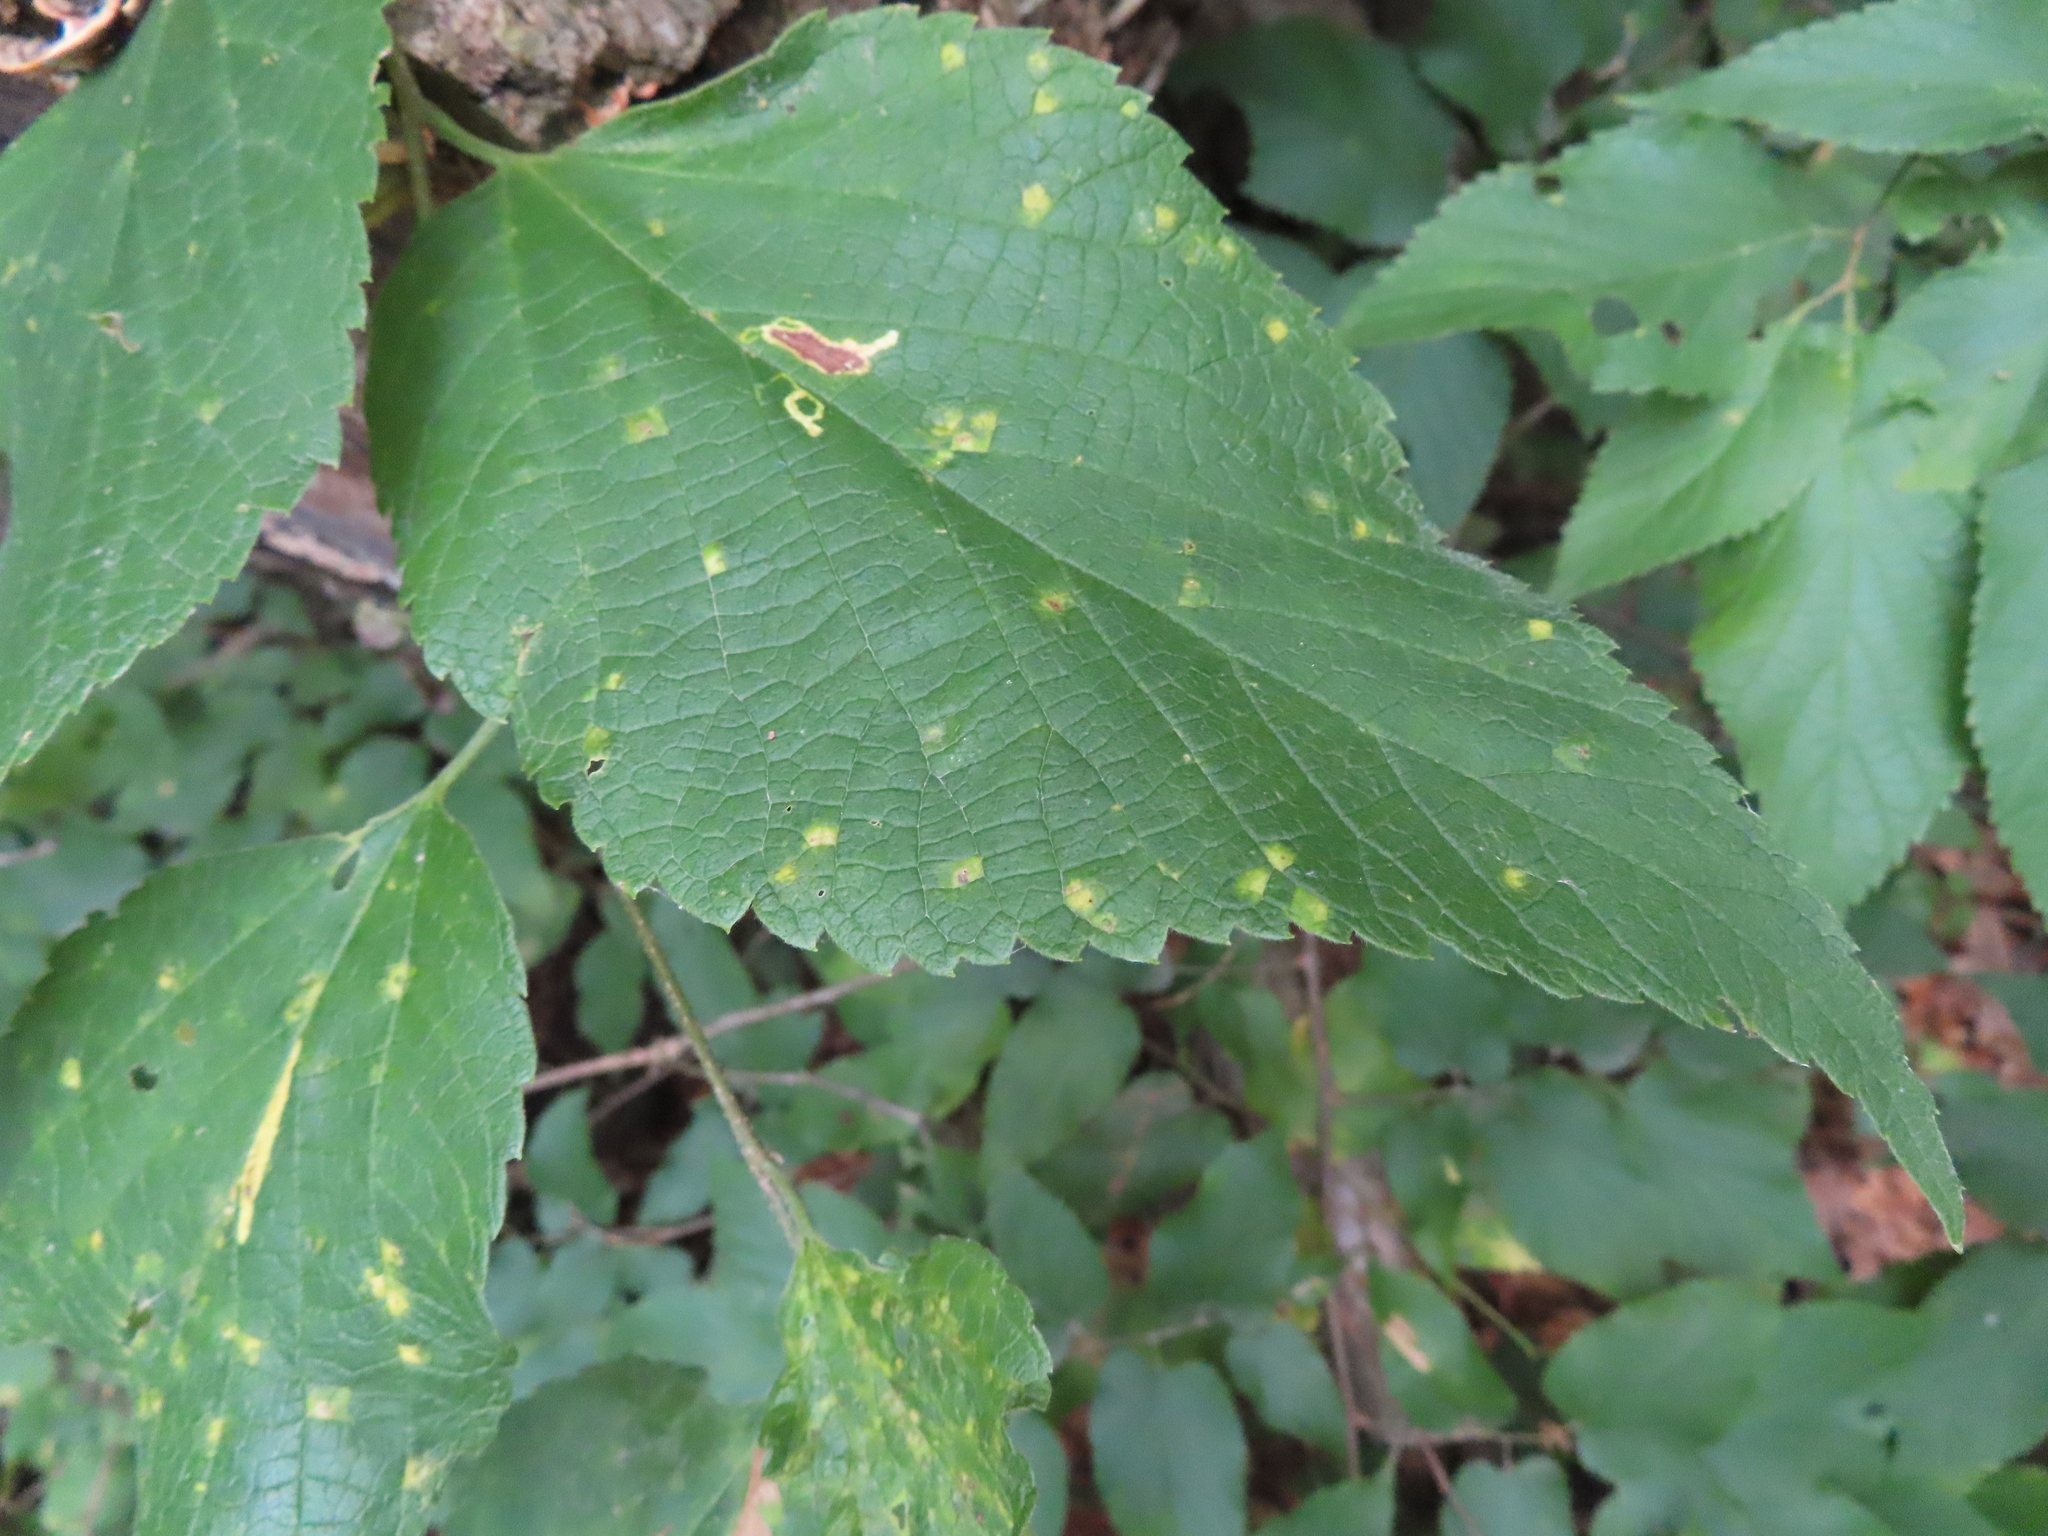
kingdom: Animalia
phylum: Arthropoda
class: Insecta
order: Hemiptera
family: Aphalaridae
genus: Pachypsylla
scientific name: Pachypsylla celtidisvesicula
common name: Hackberry blister gall psyllid
